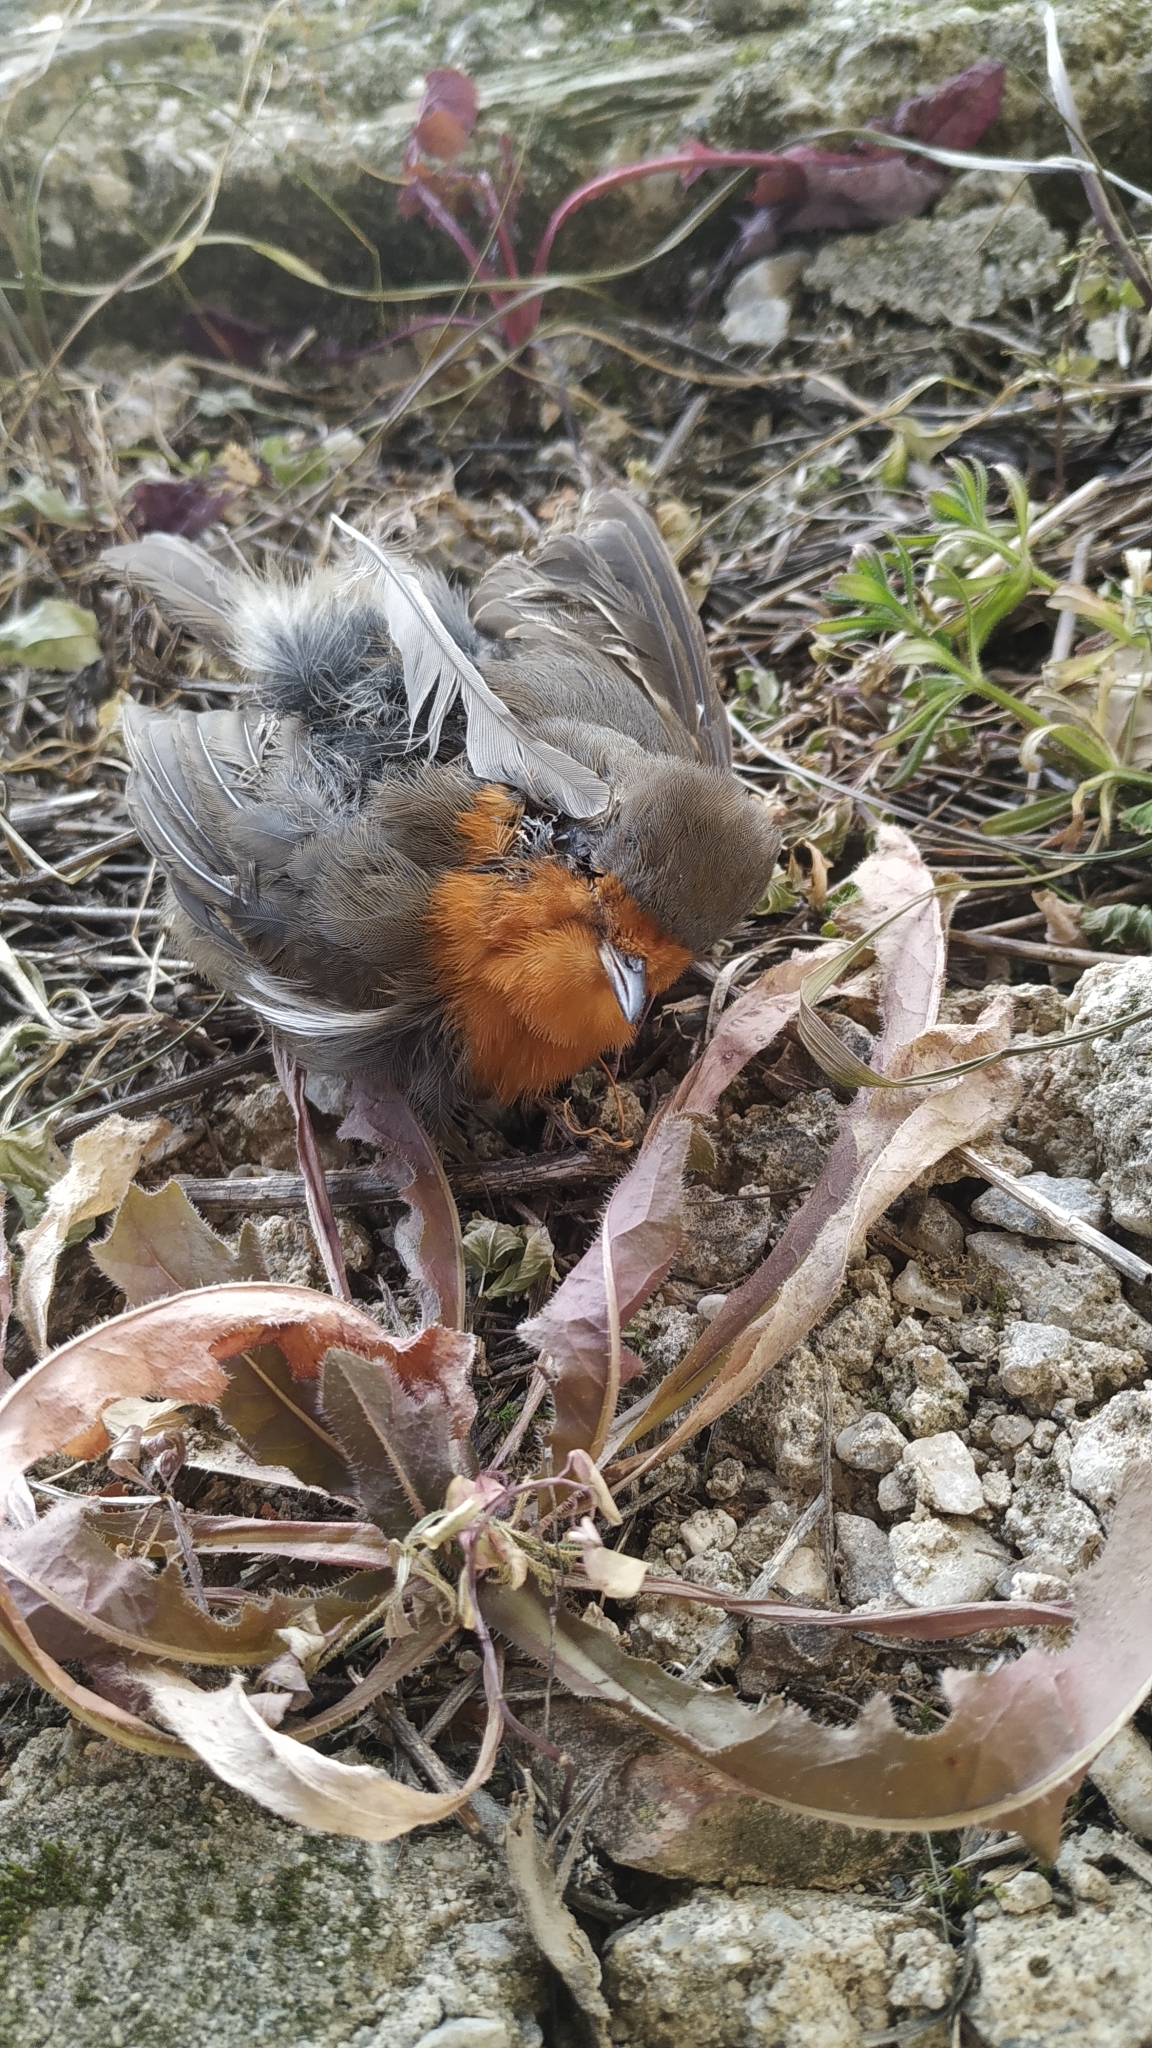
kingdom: Animalia
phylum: Chordata
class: Aves
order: Passeriformes
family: Muscicapidae
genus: Erithacus
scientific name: Erithacus rubecula
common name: European robin
